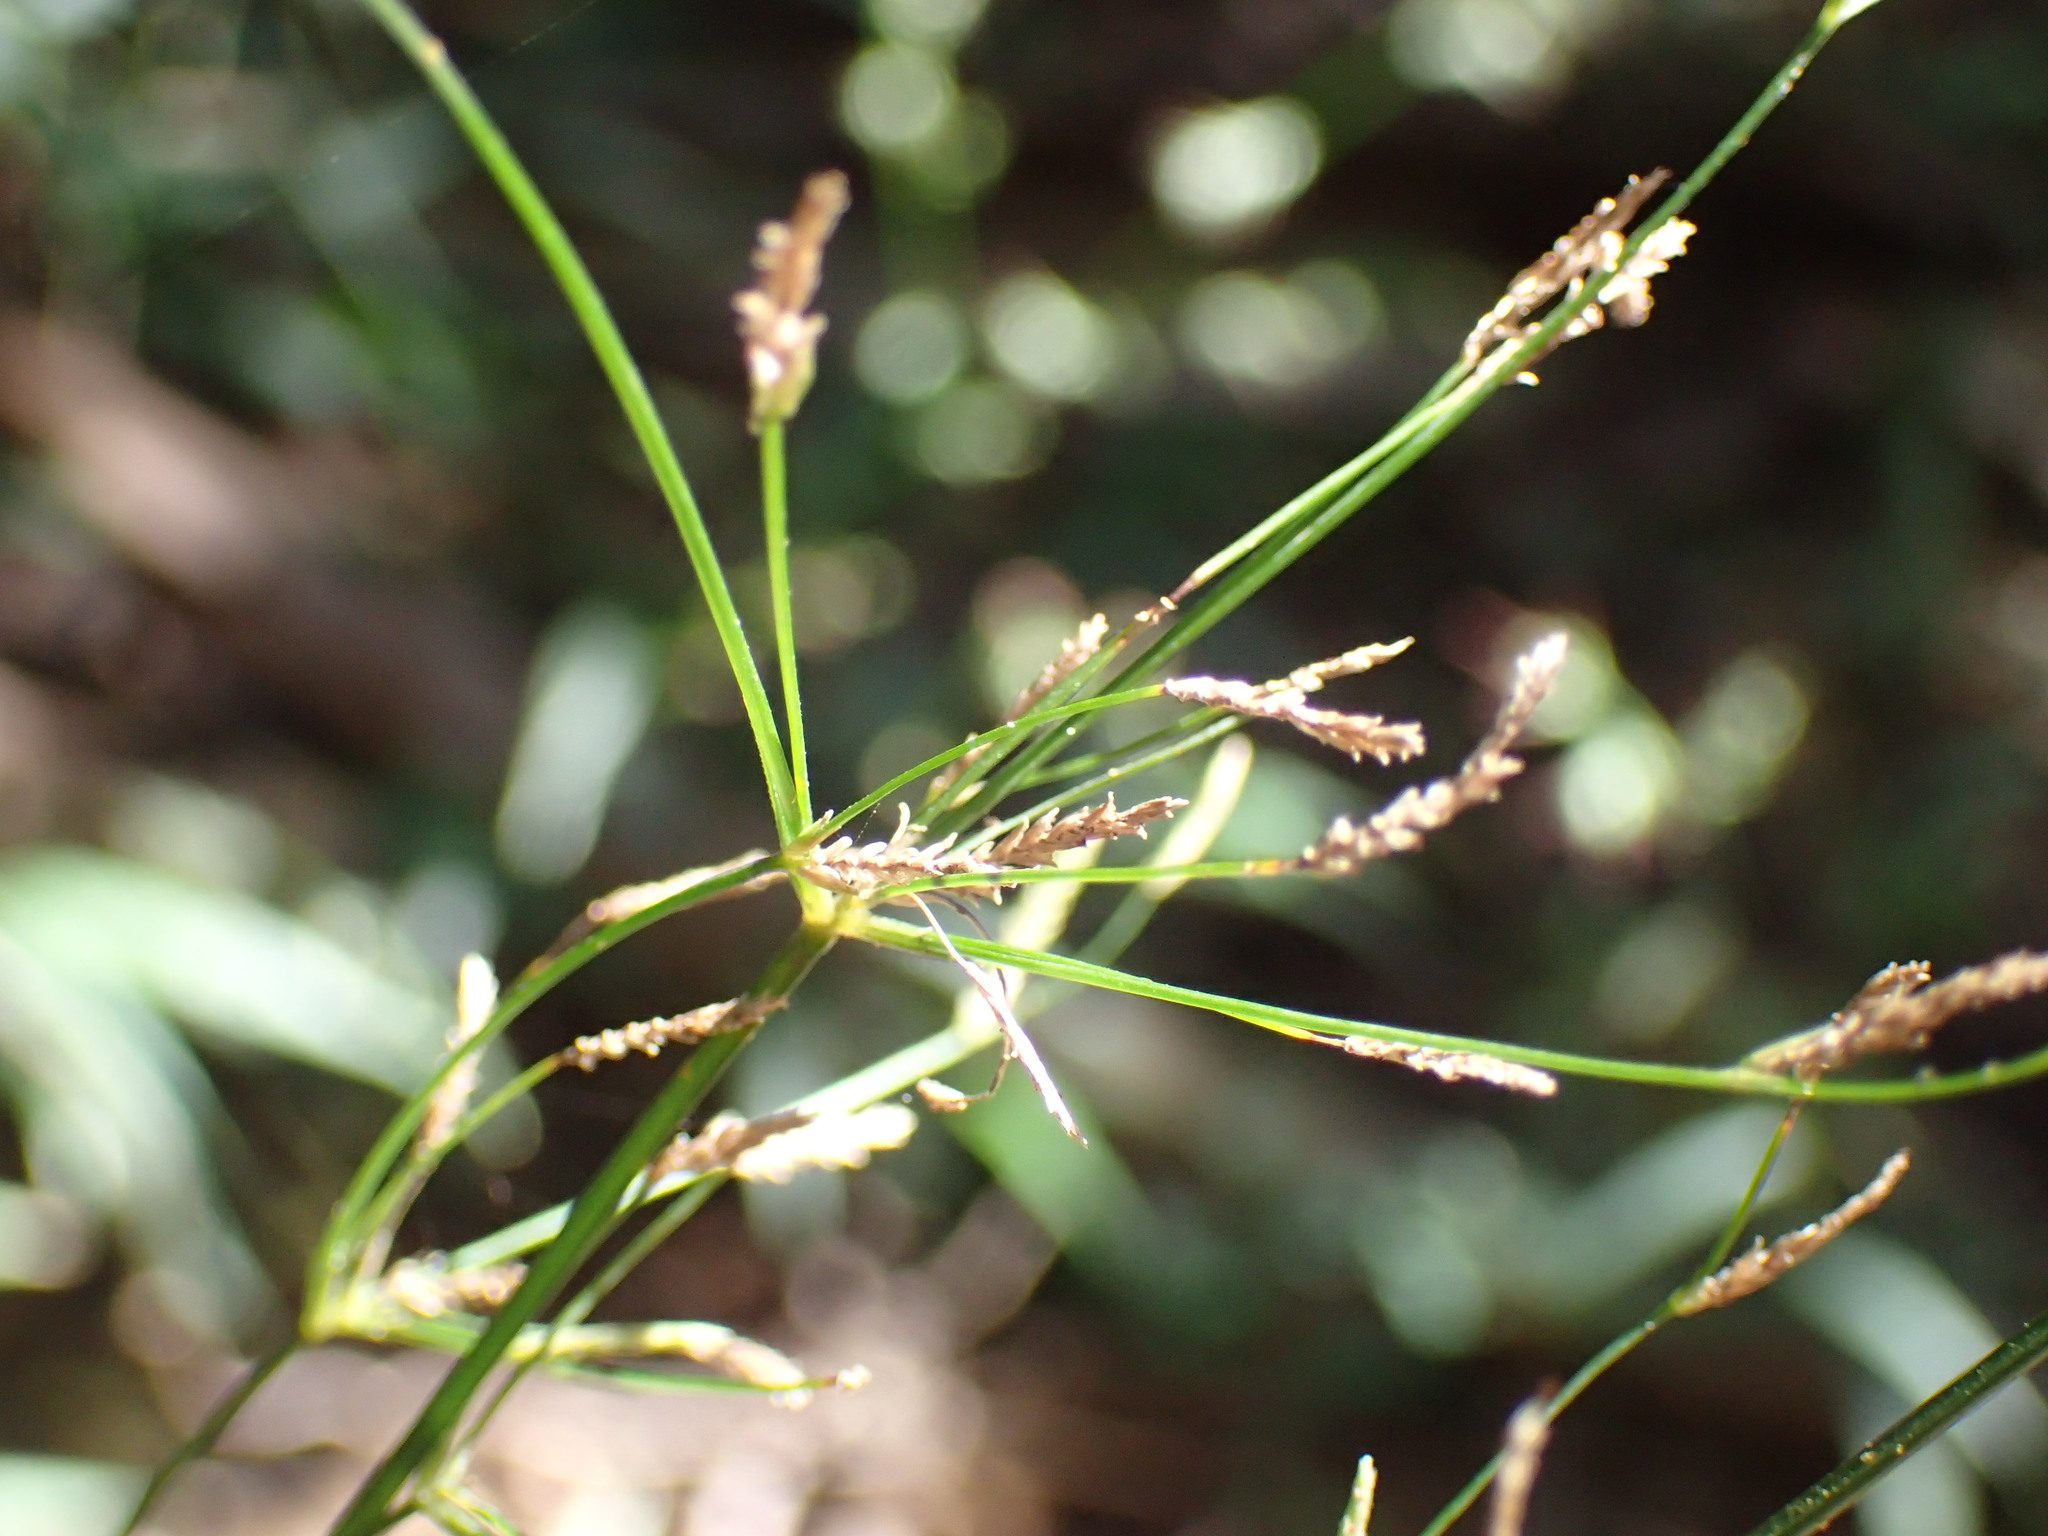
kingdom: Plantae
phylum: Tracheophyta
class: Liliopsida
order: Poales
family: Cyperaceae
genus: Cyperus
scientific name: Cyperus alternifolius
